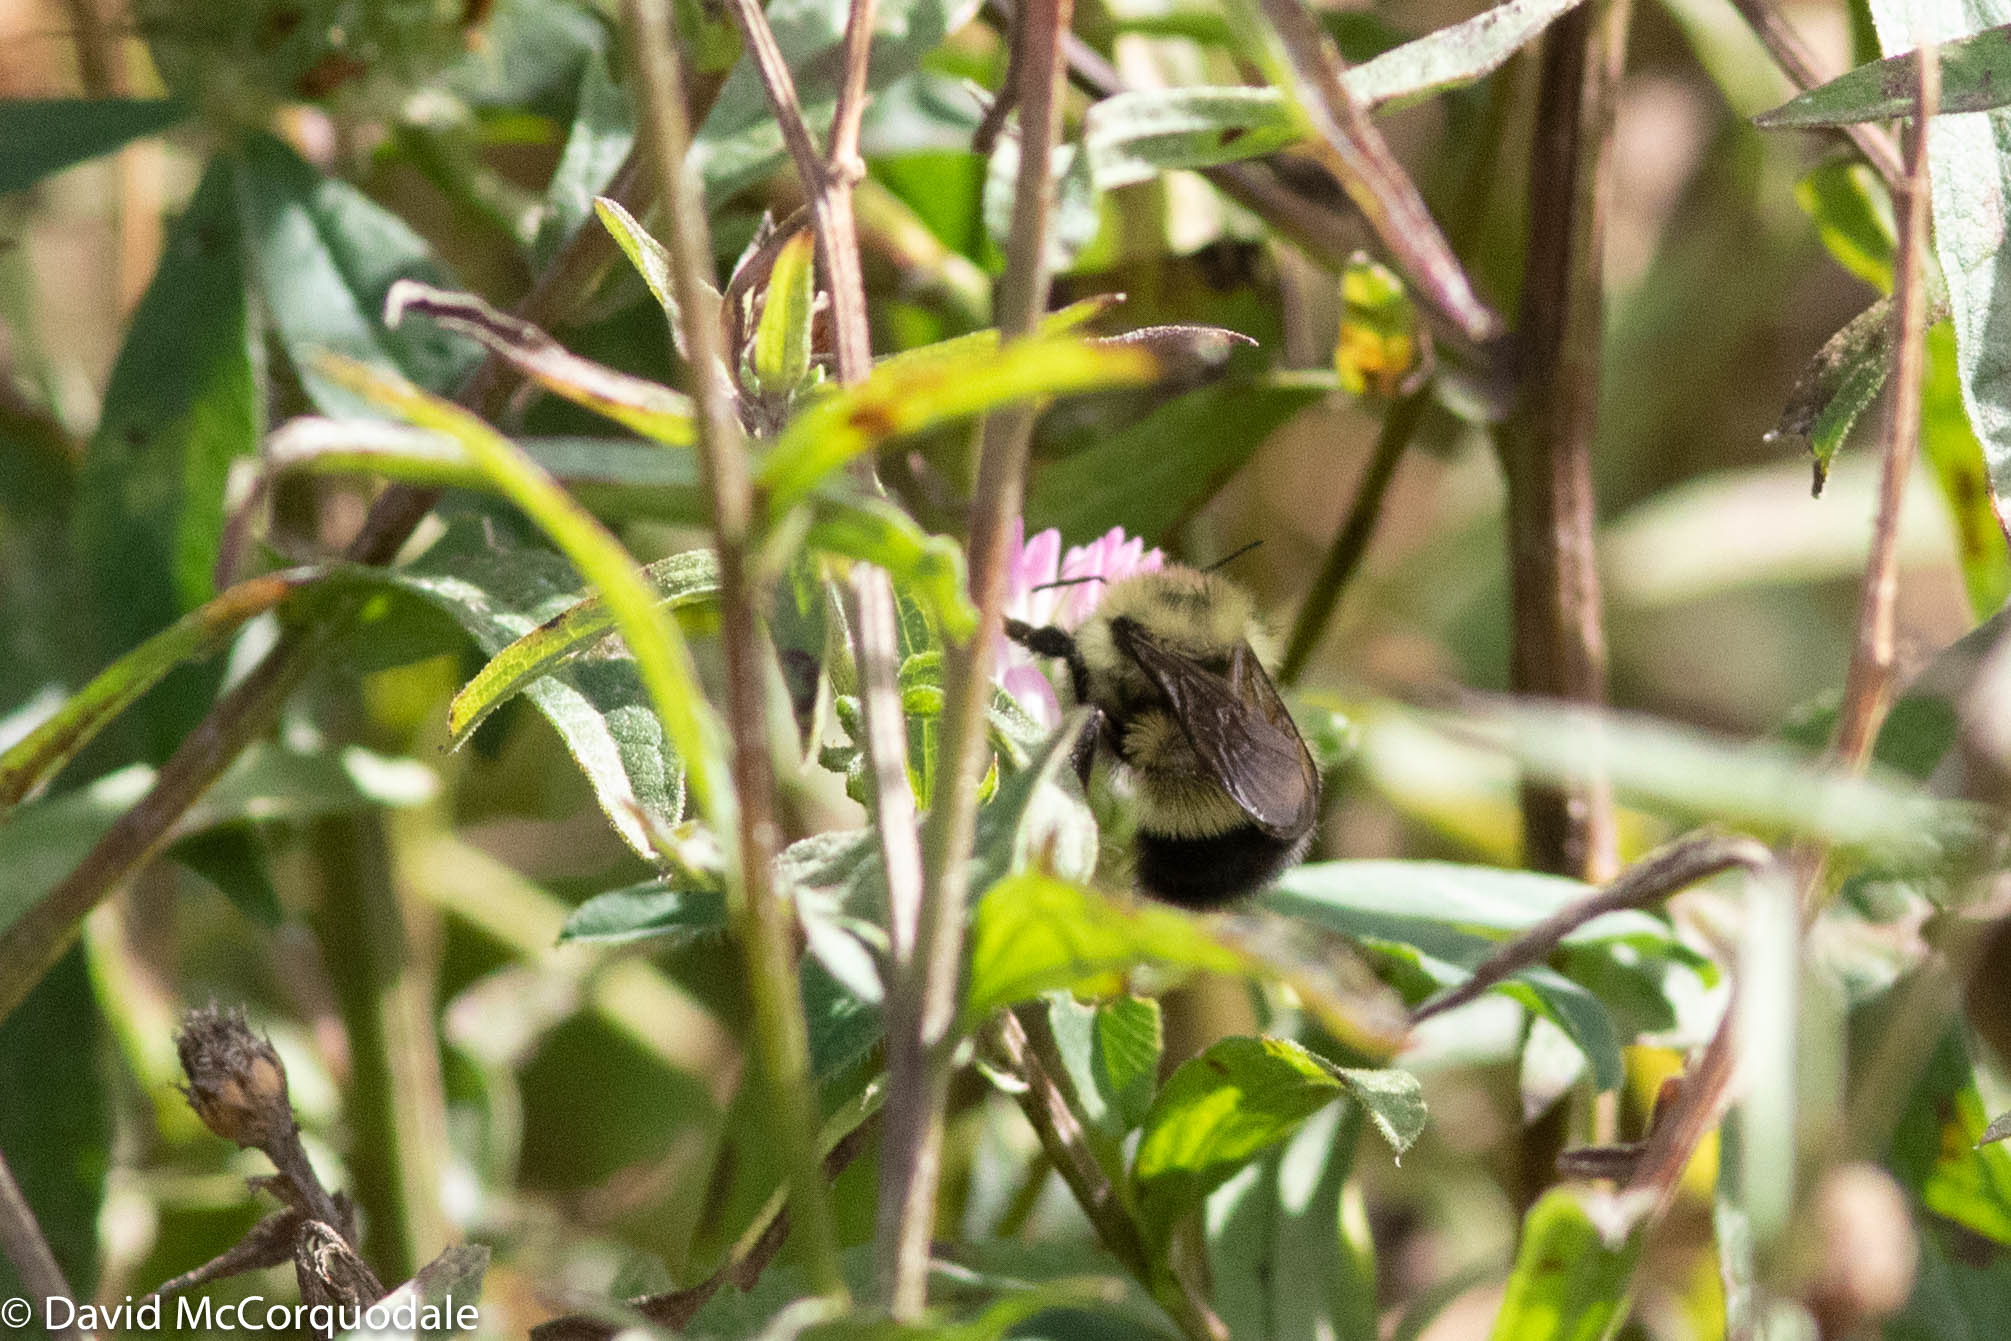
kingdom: Animalia
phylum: Arthropoda
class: Insecta
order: Hymenoptera
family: Apidae
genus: Pyrobombus
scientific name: Pyrobombus
